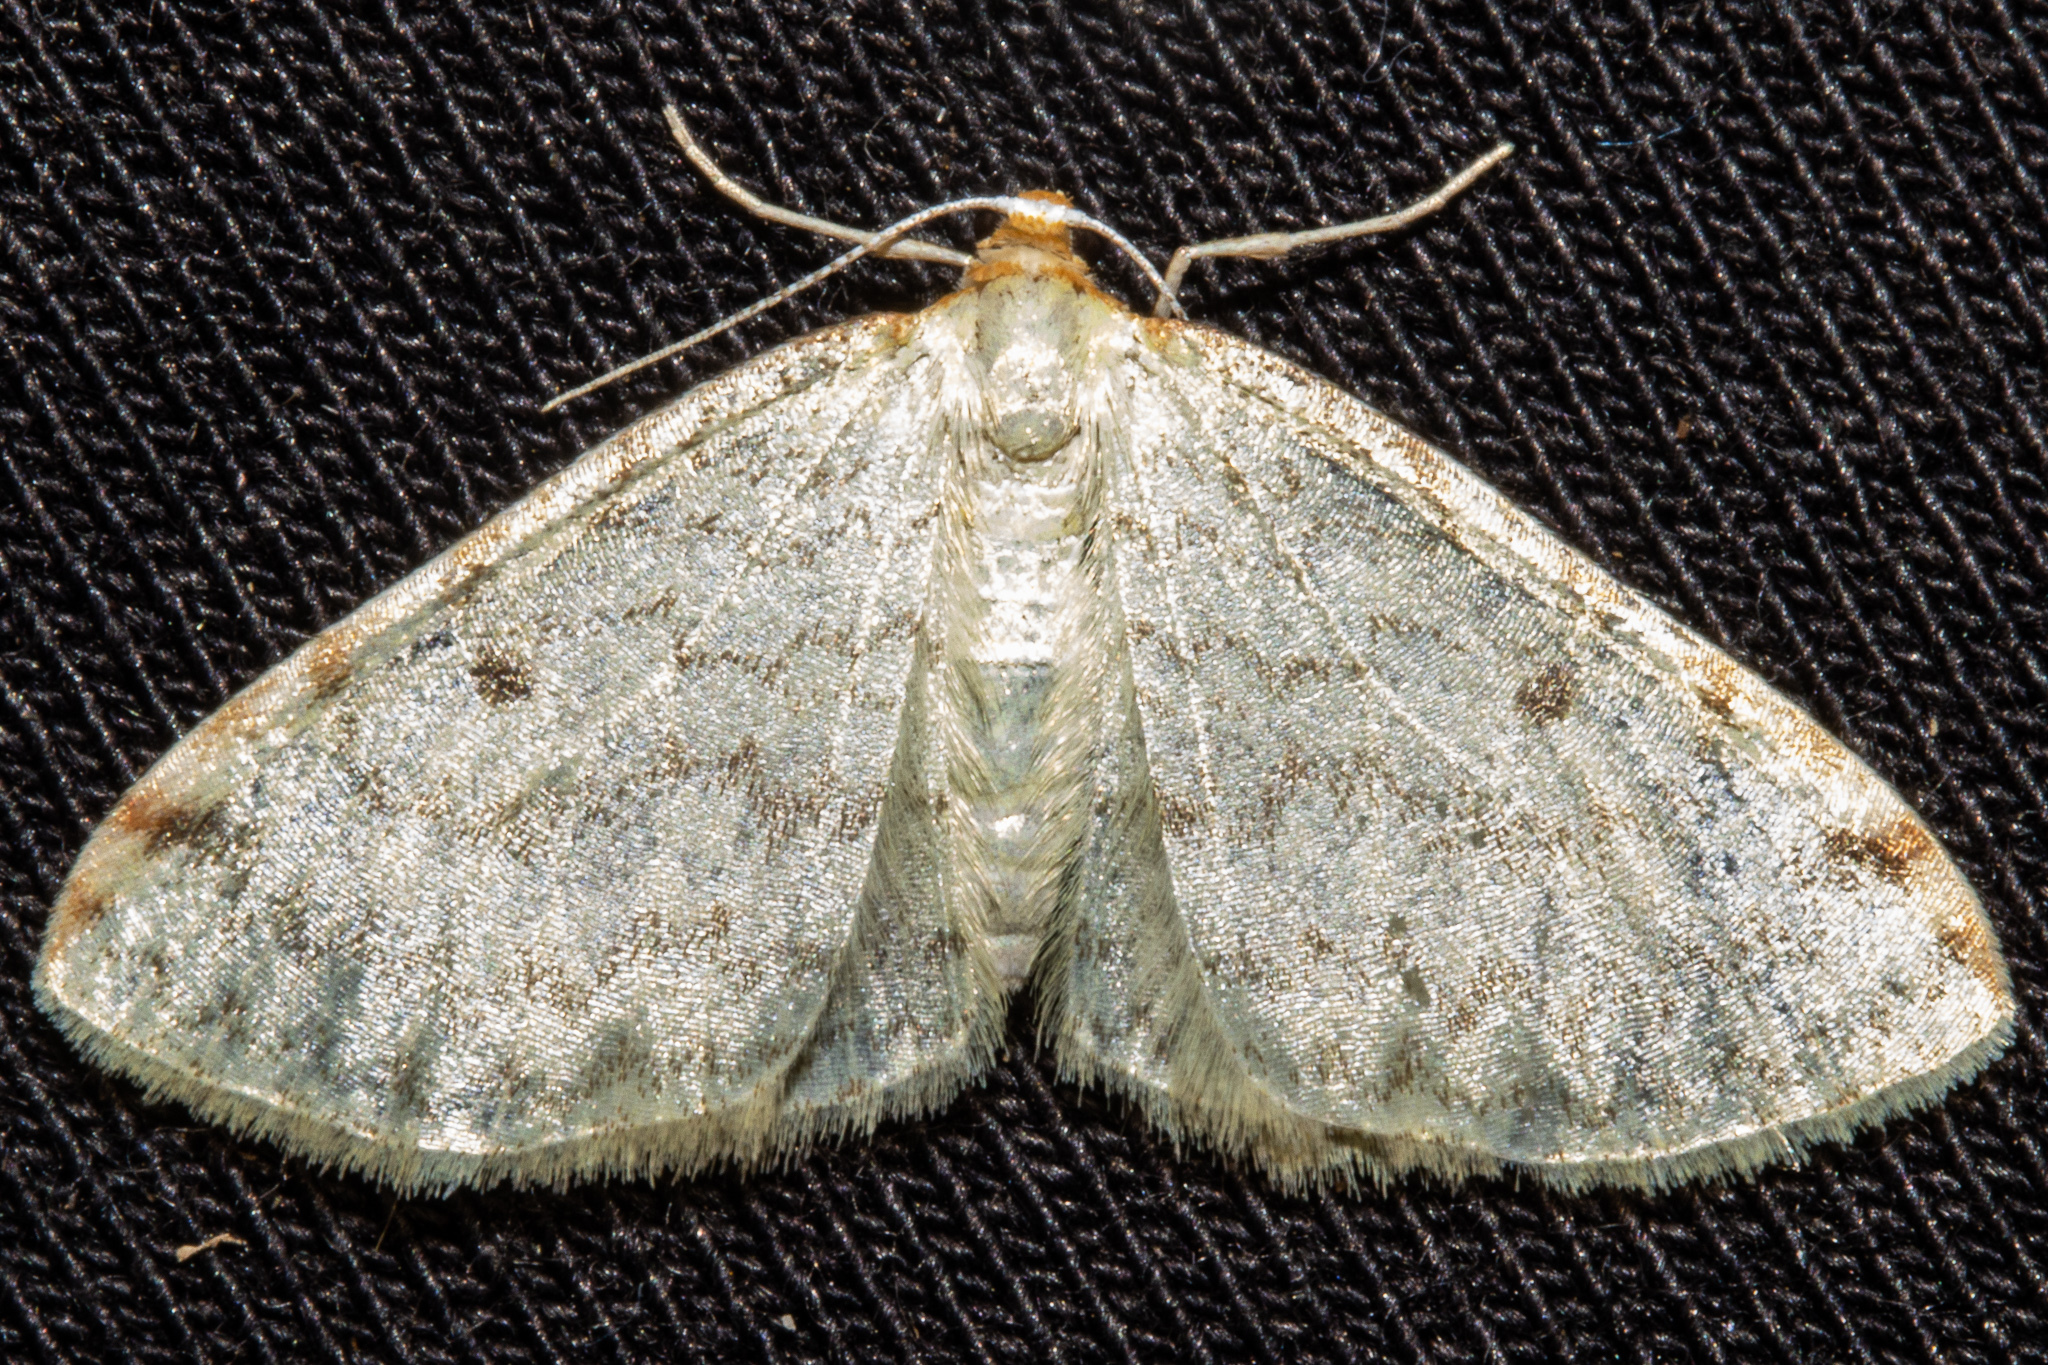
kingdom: Animalia
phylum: Arthropoda
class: Insecta
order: Lepidoptera
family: Geometridae
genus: Epiphryne
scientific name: Epiphryne undosata
